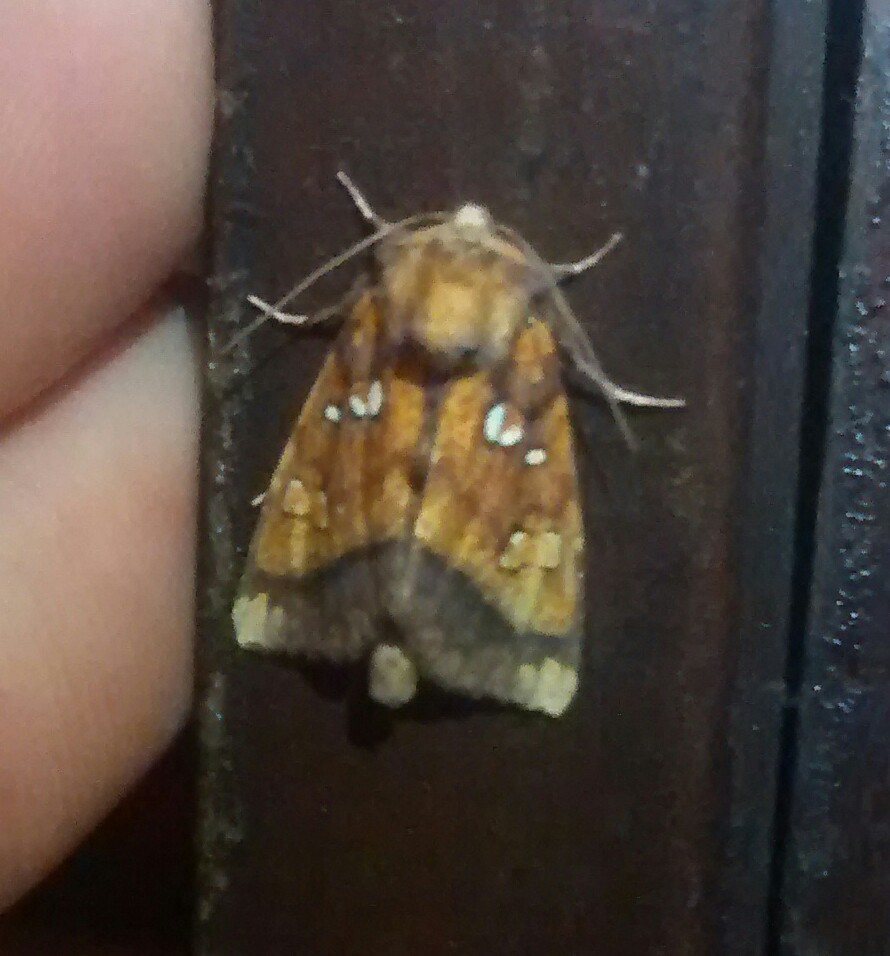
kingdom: Animalia
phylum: Arthropoda
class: Insecta
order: Lepidoptera
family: Noctuidae
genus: Papaipema
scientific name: Papaipema leucostigma
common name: Columbine borer moth
